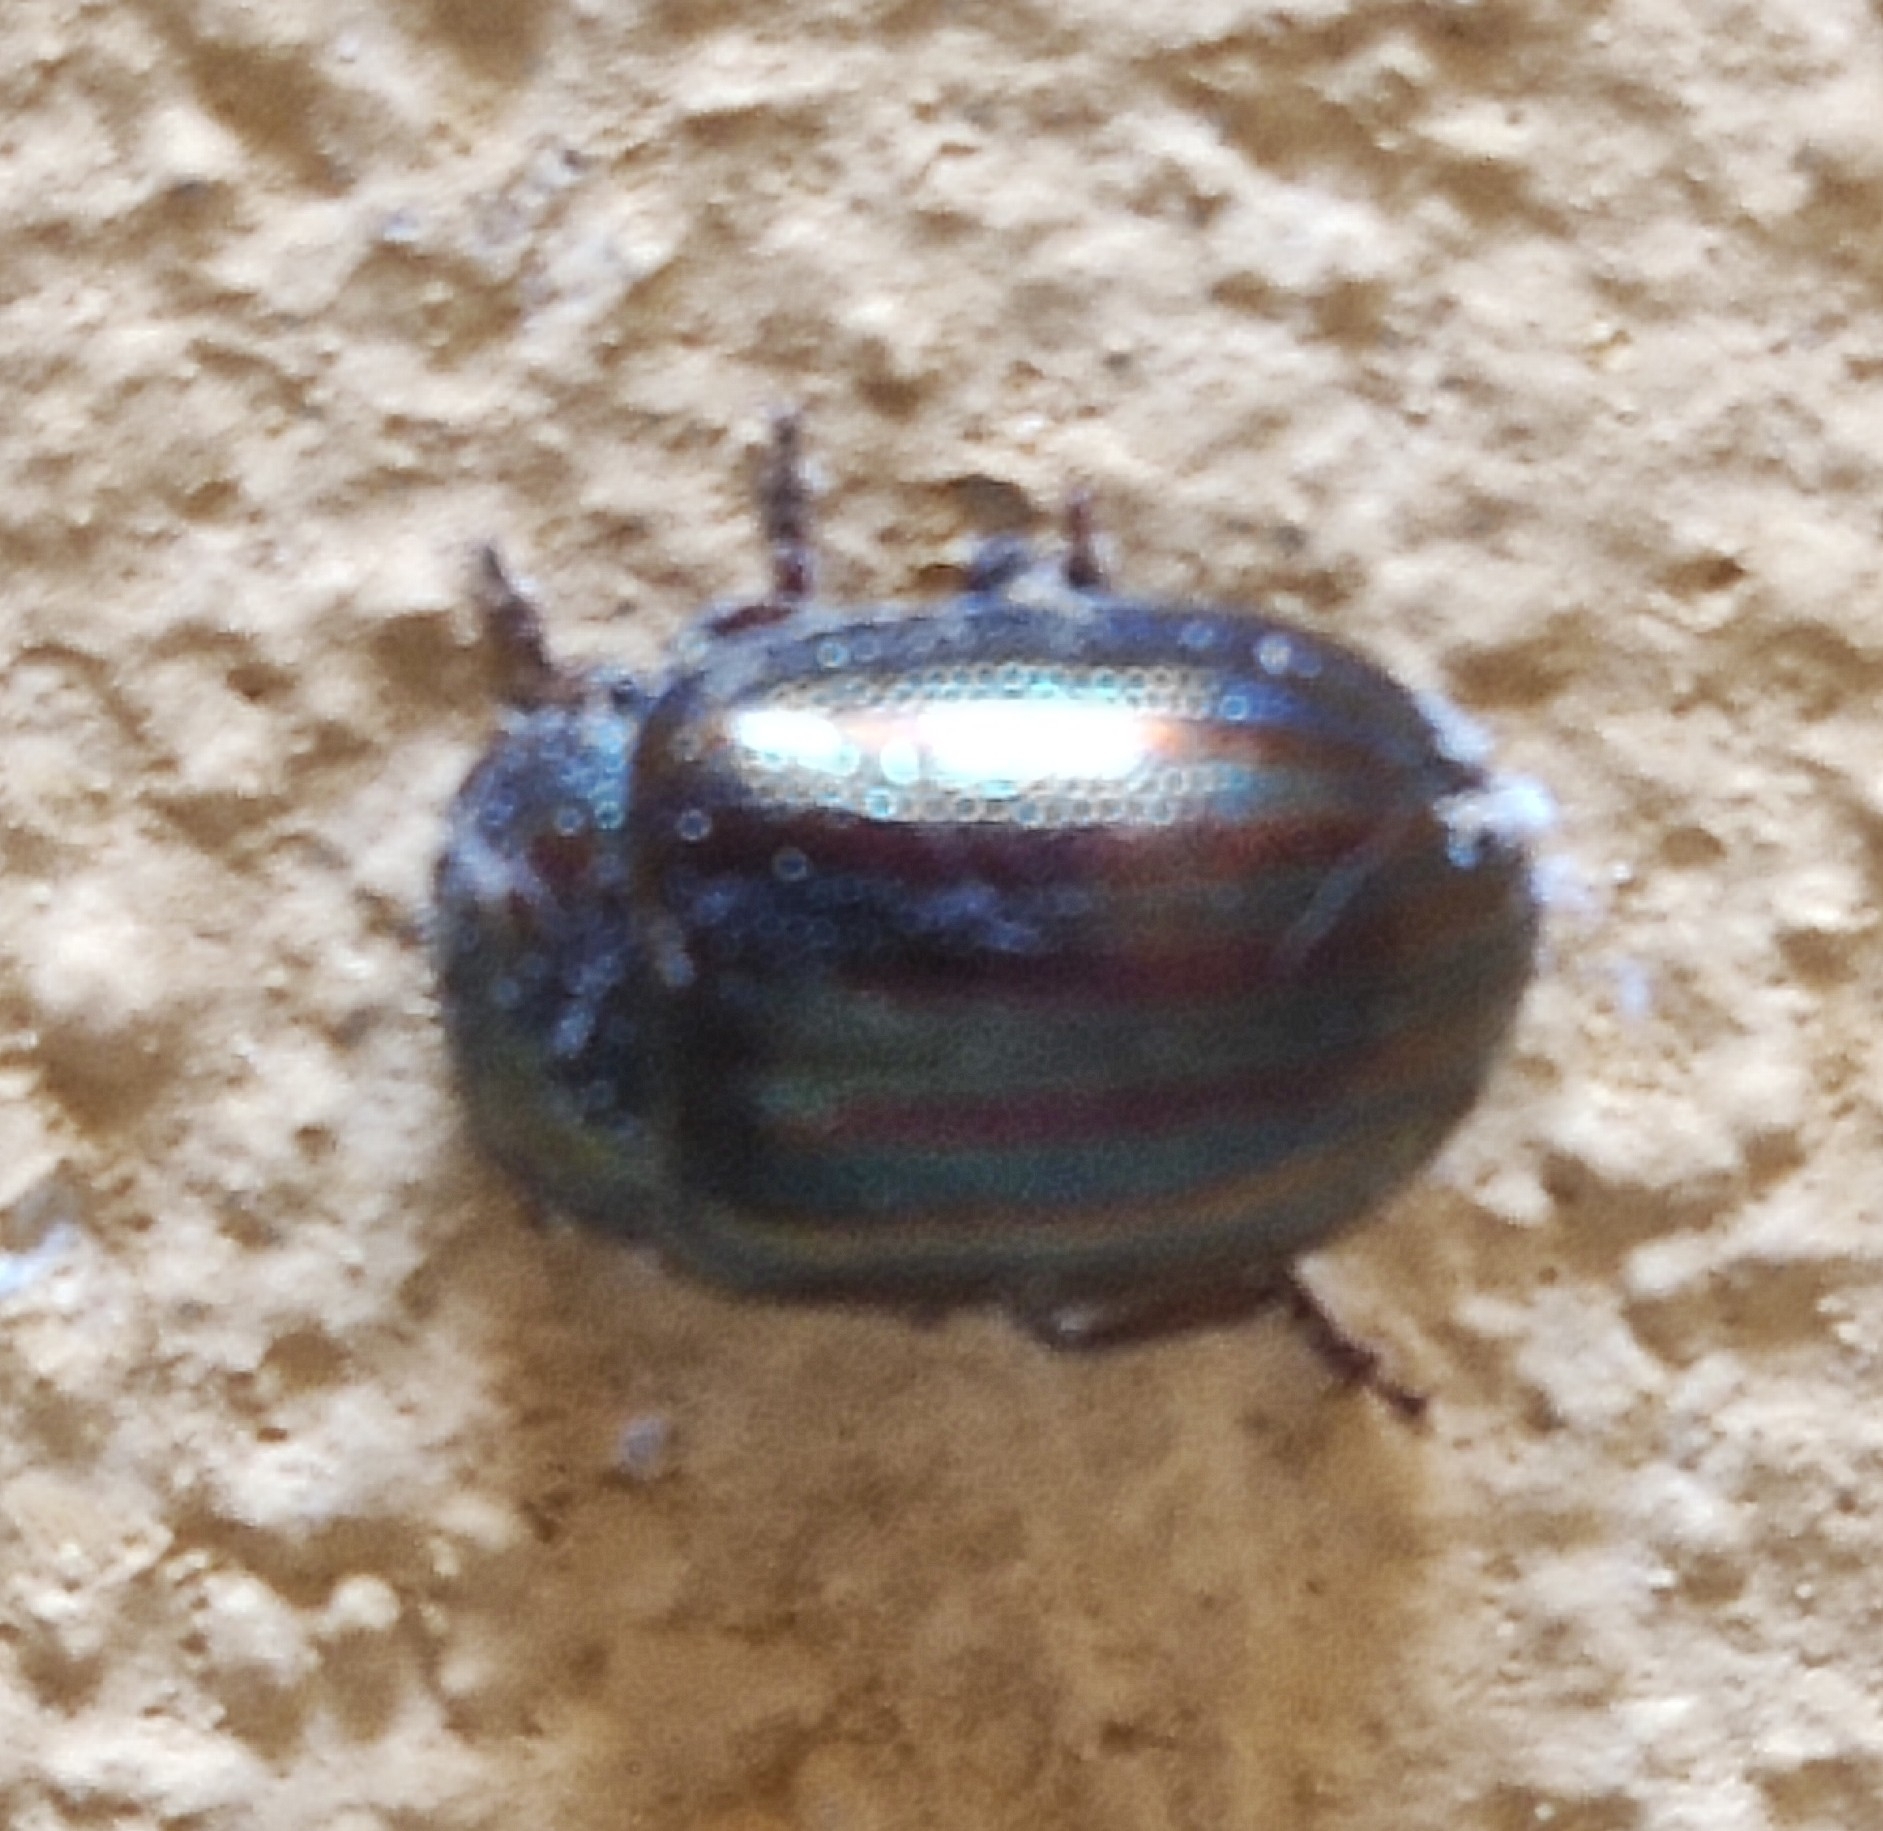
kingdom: Animalia
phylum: Arthropoda
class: Insecta
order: Coleoptera
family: Chrysomelidae
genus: Chrysolina
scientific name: Chrysolina americana
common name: Rosemary beetle
